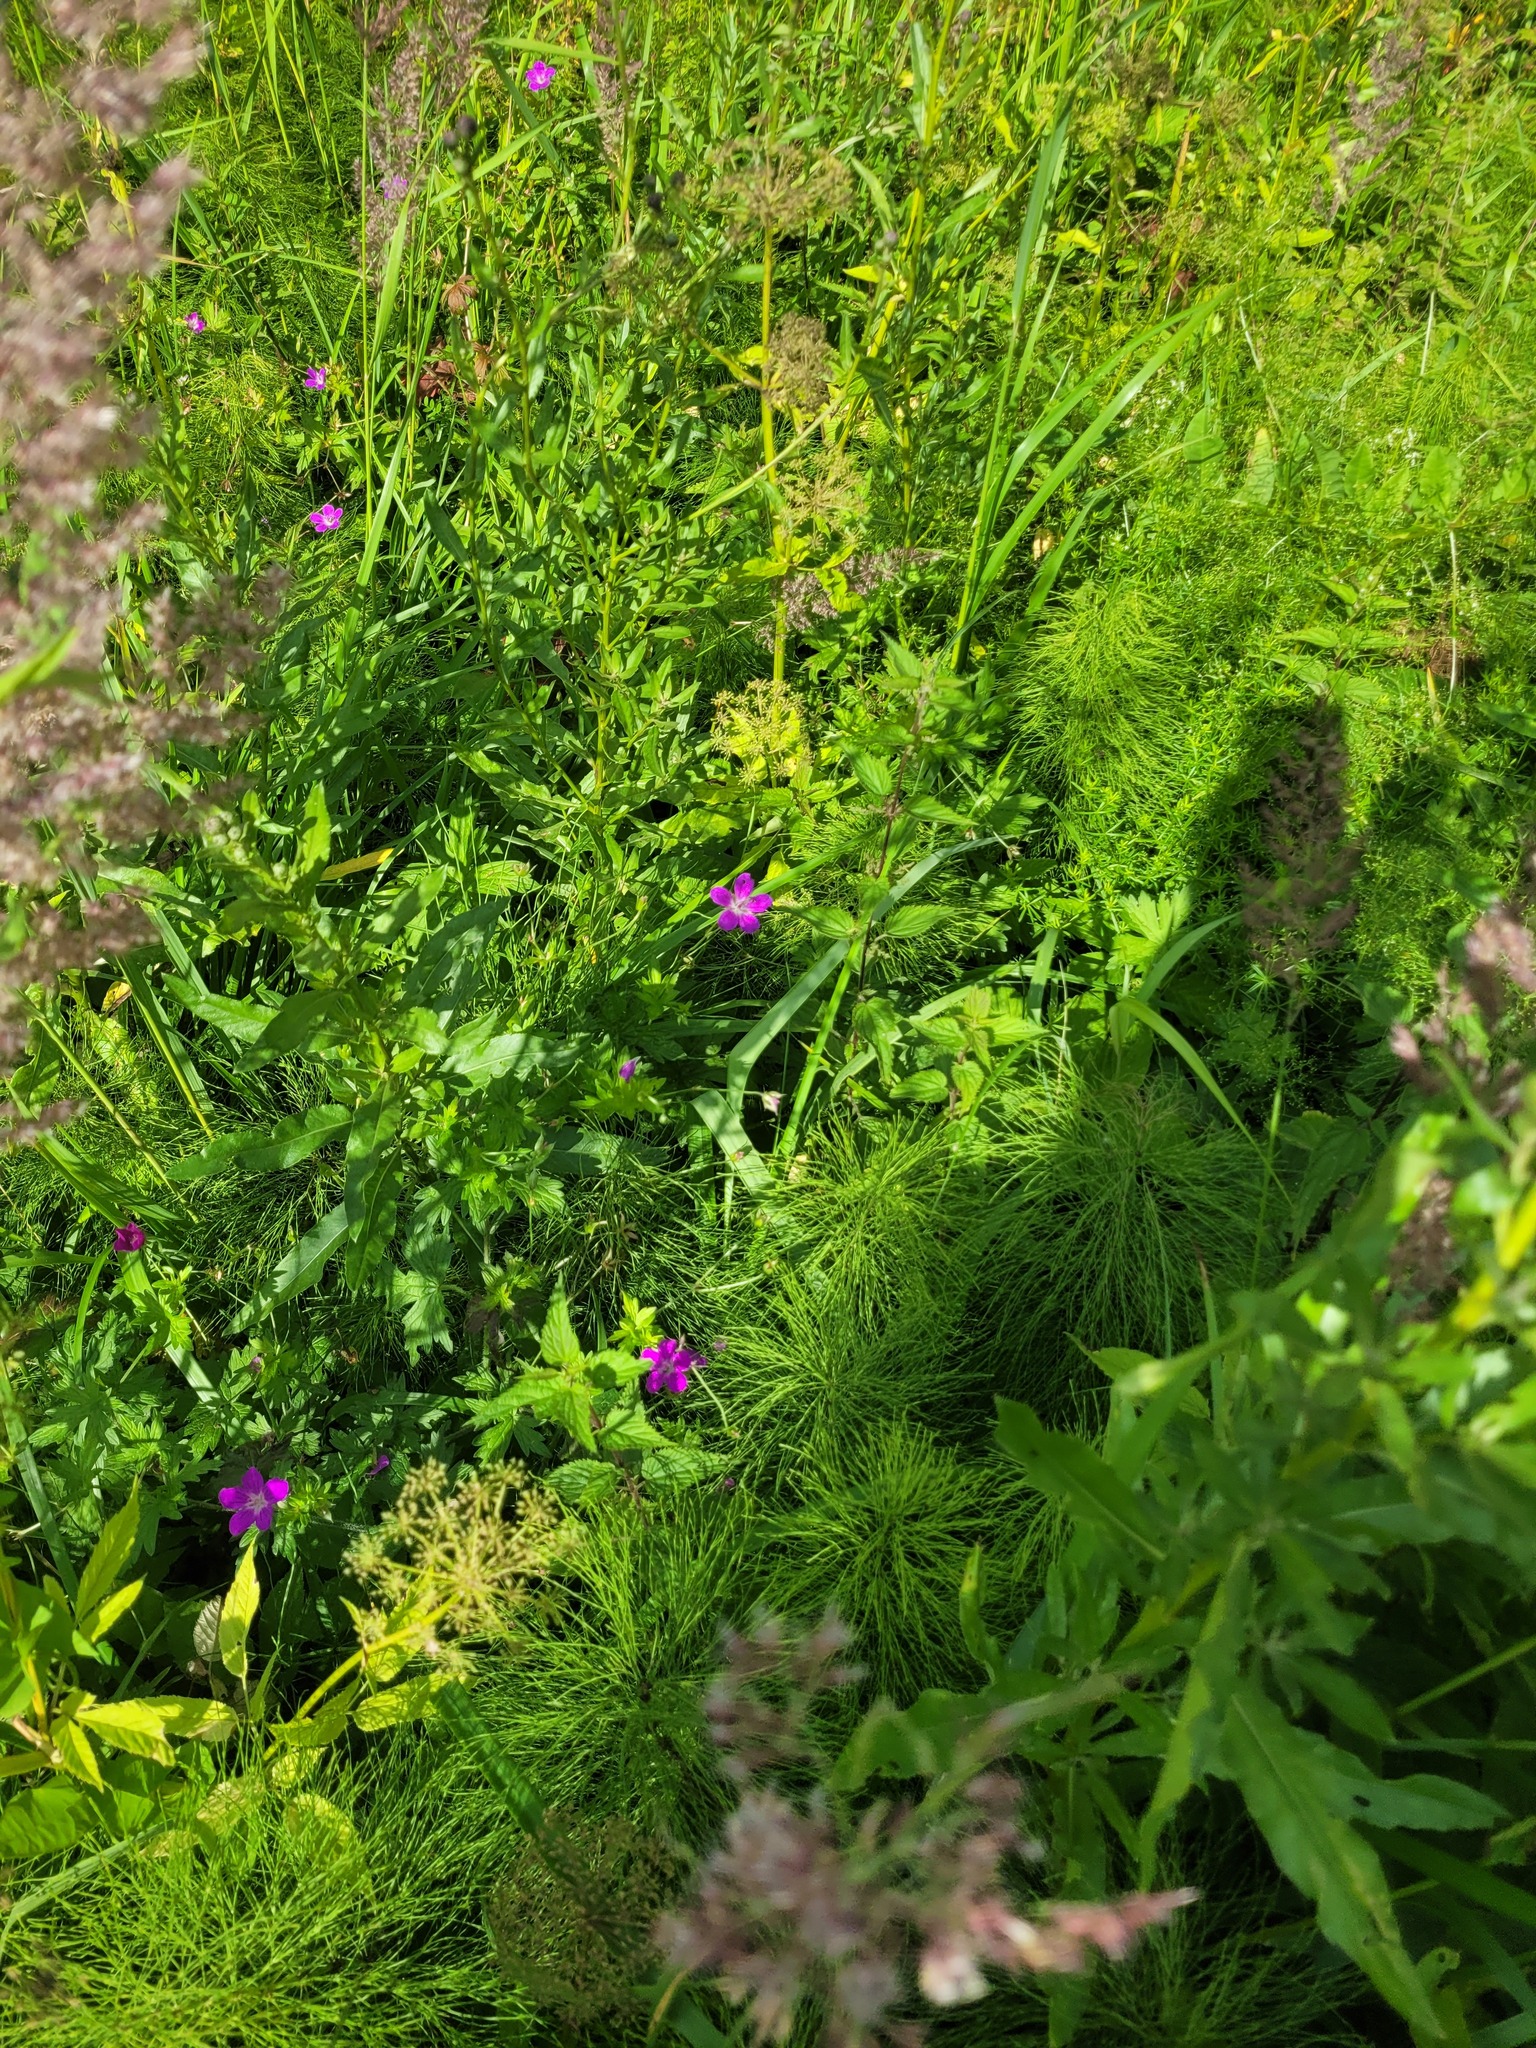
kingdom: Plantae
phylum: Tracheophyta
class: Magnoliopsida
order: Geraniales
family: Geraniaceae
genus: Geranium
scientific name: Geranium palustre
